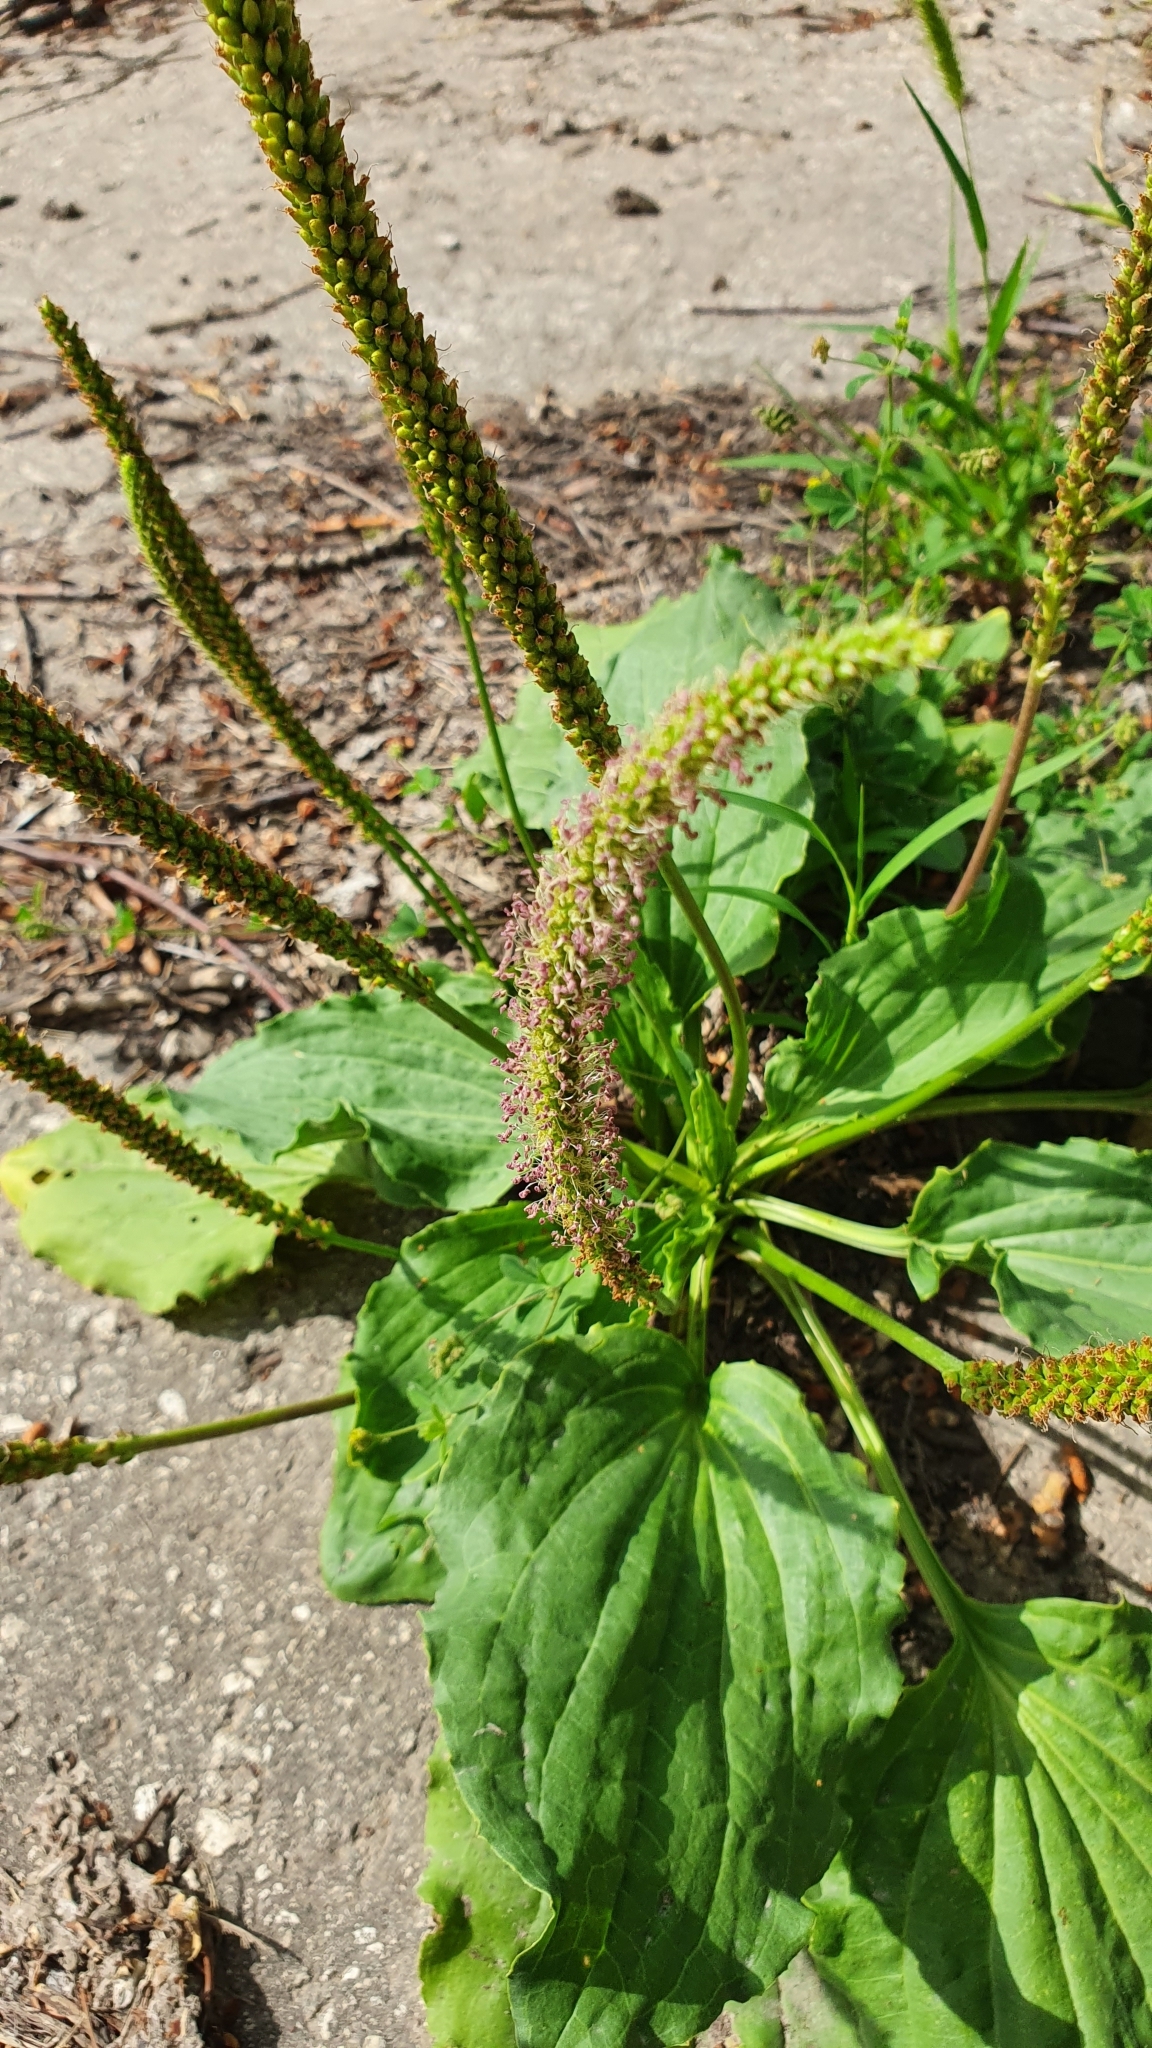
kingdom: Plantae
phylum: Tracheophyta
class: Magnoliopsida
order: Lamiales
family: Plantaginaceae
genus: Plantago
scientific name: Plantago major
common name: Common plantain
